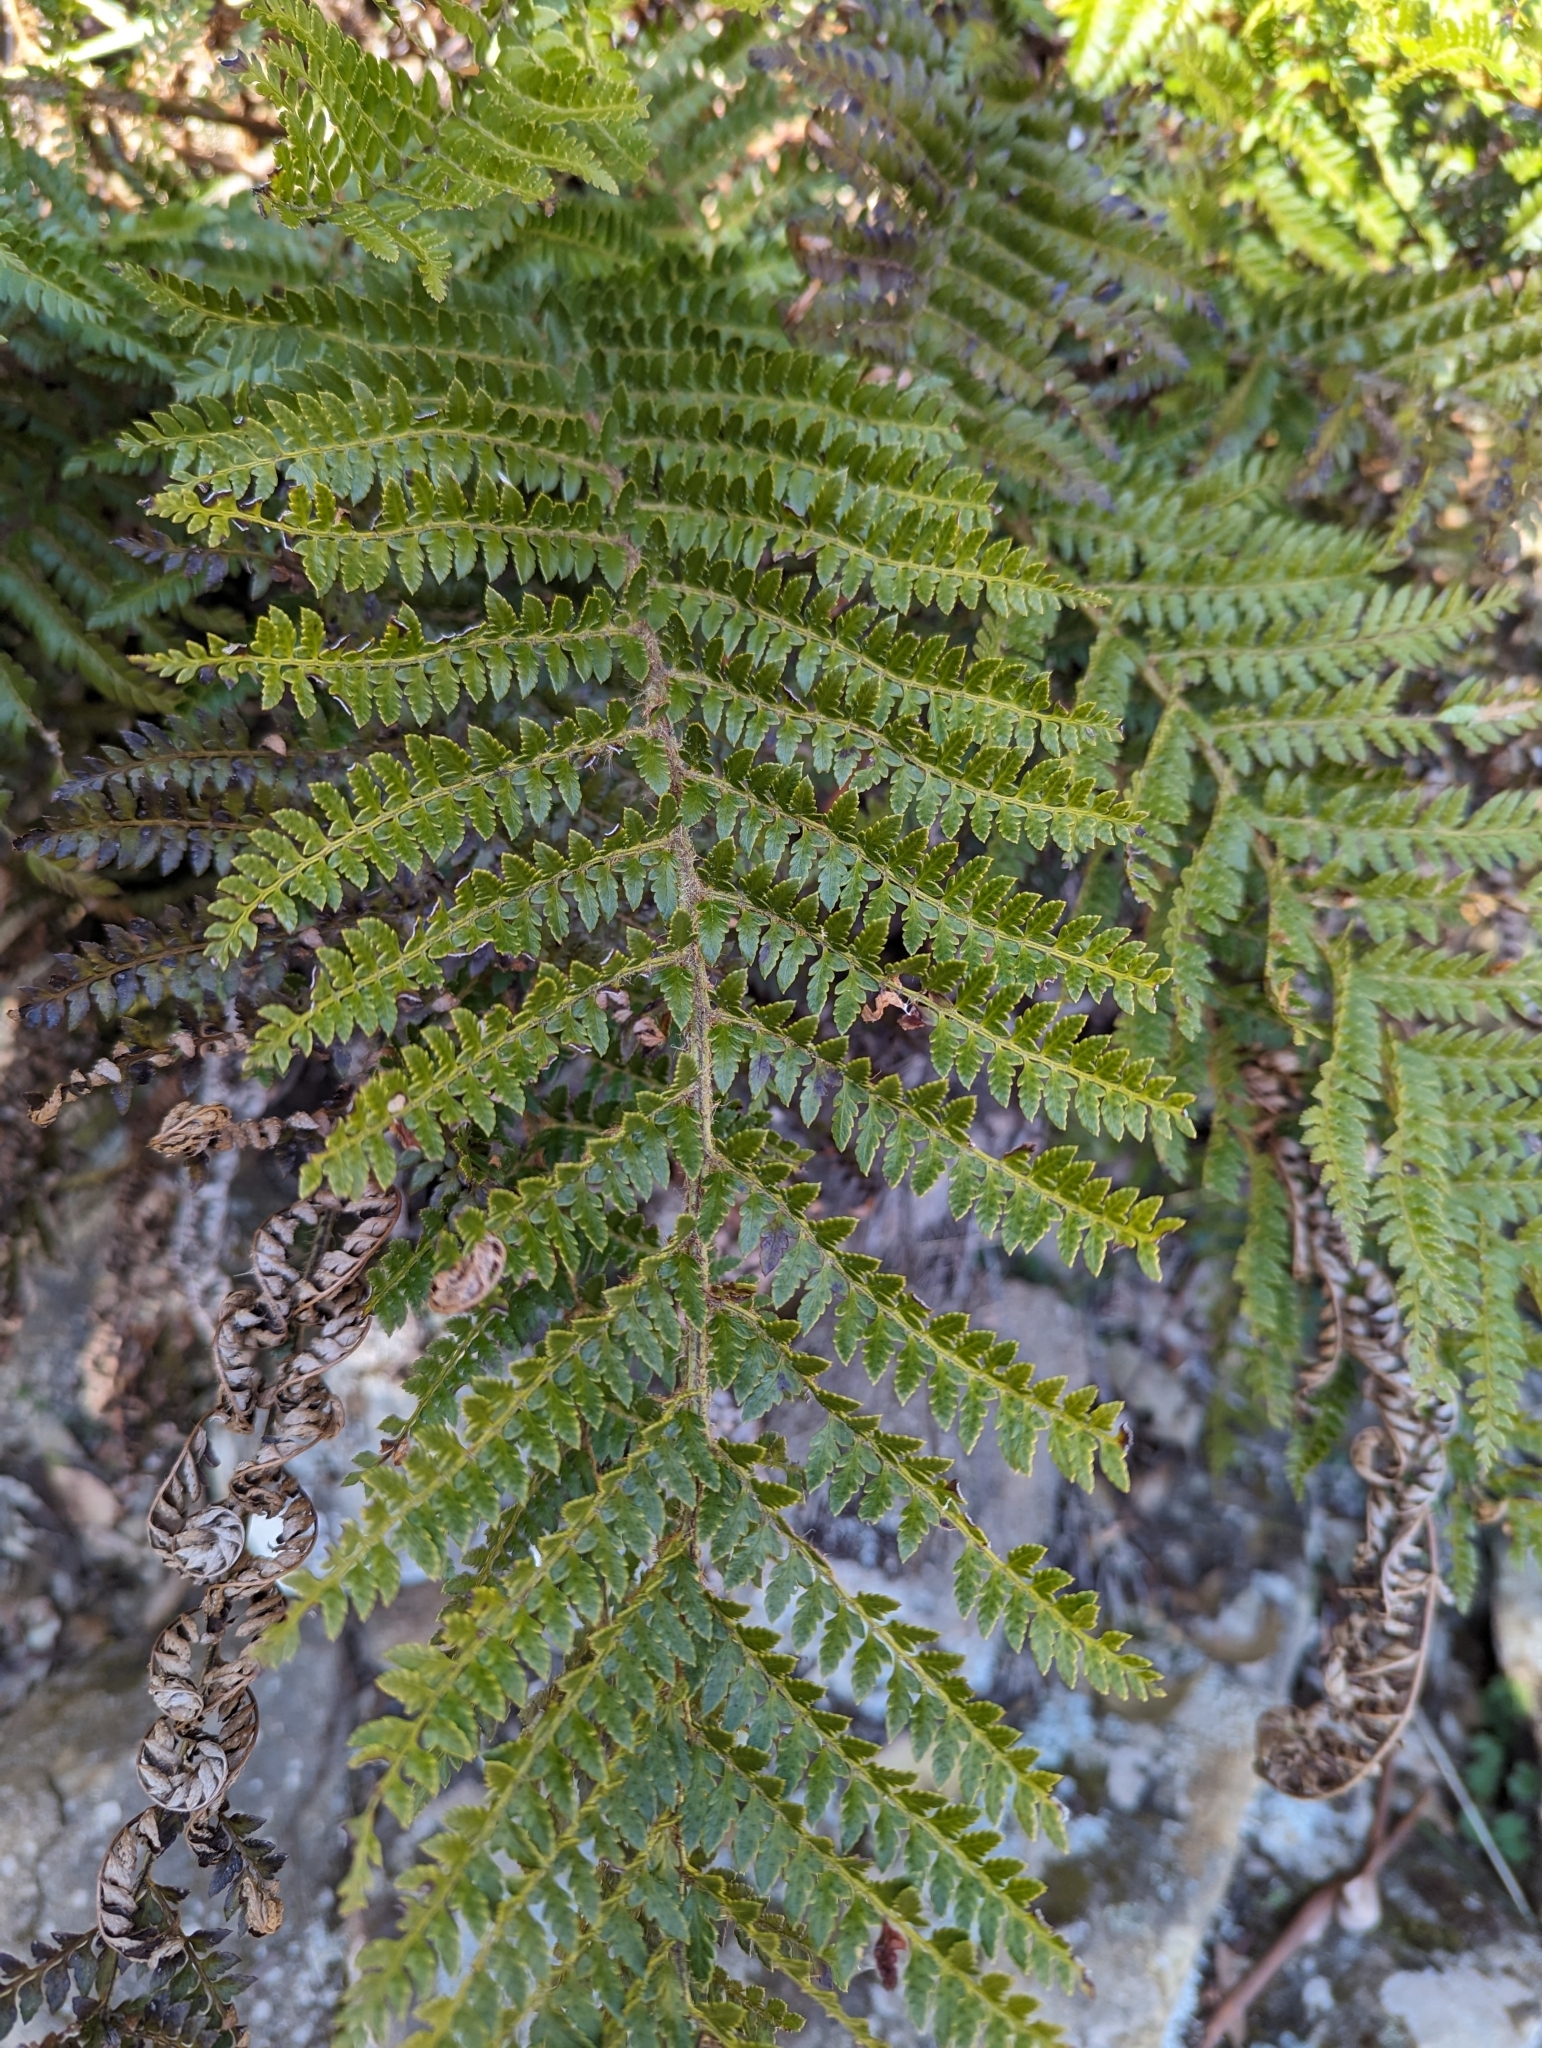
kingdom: Plantae
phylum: Tracheophyta
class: Polypodiopsida
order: Polypodiales
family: Dryopteridaceae
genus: Polystichum
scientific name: Polystichum proliferum
